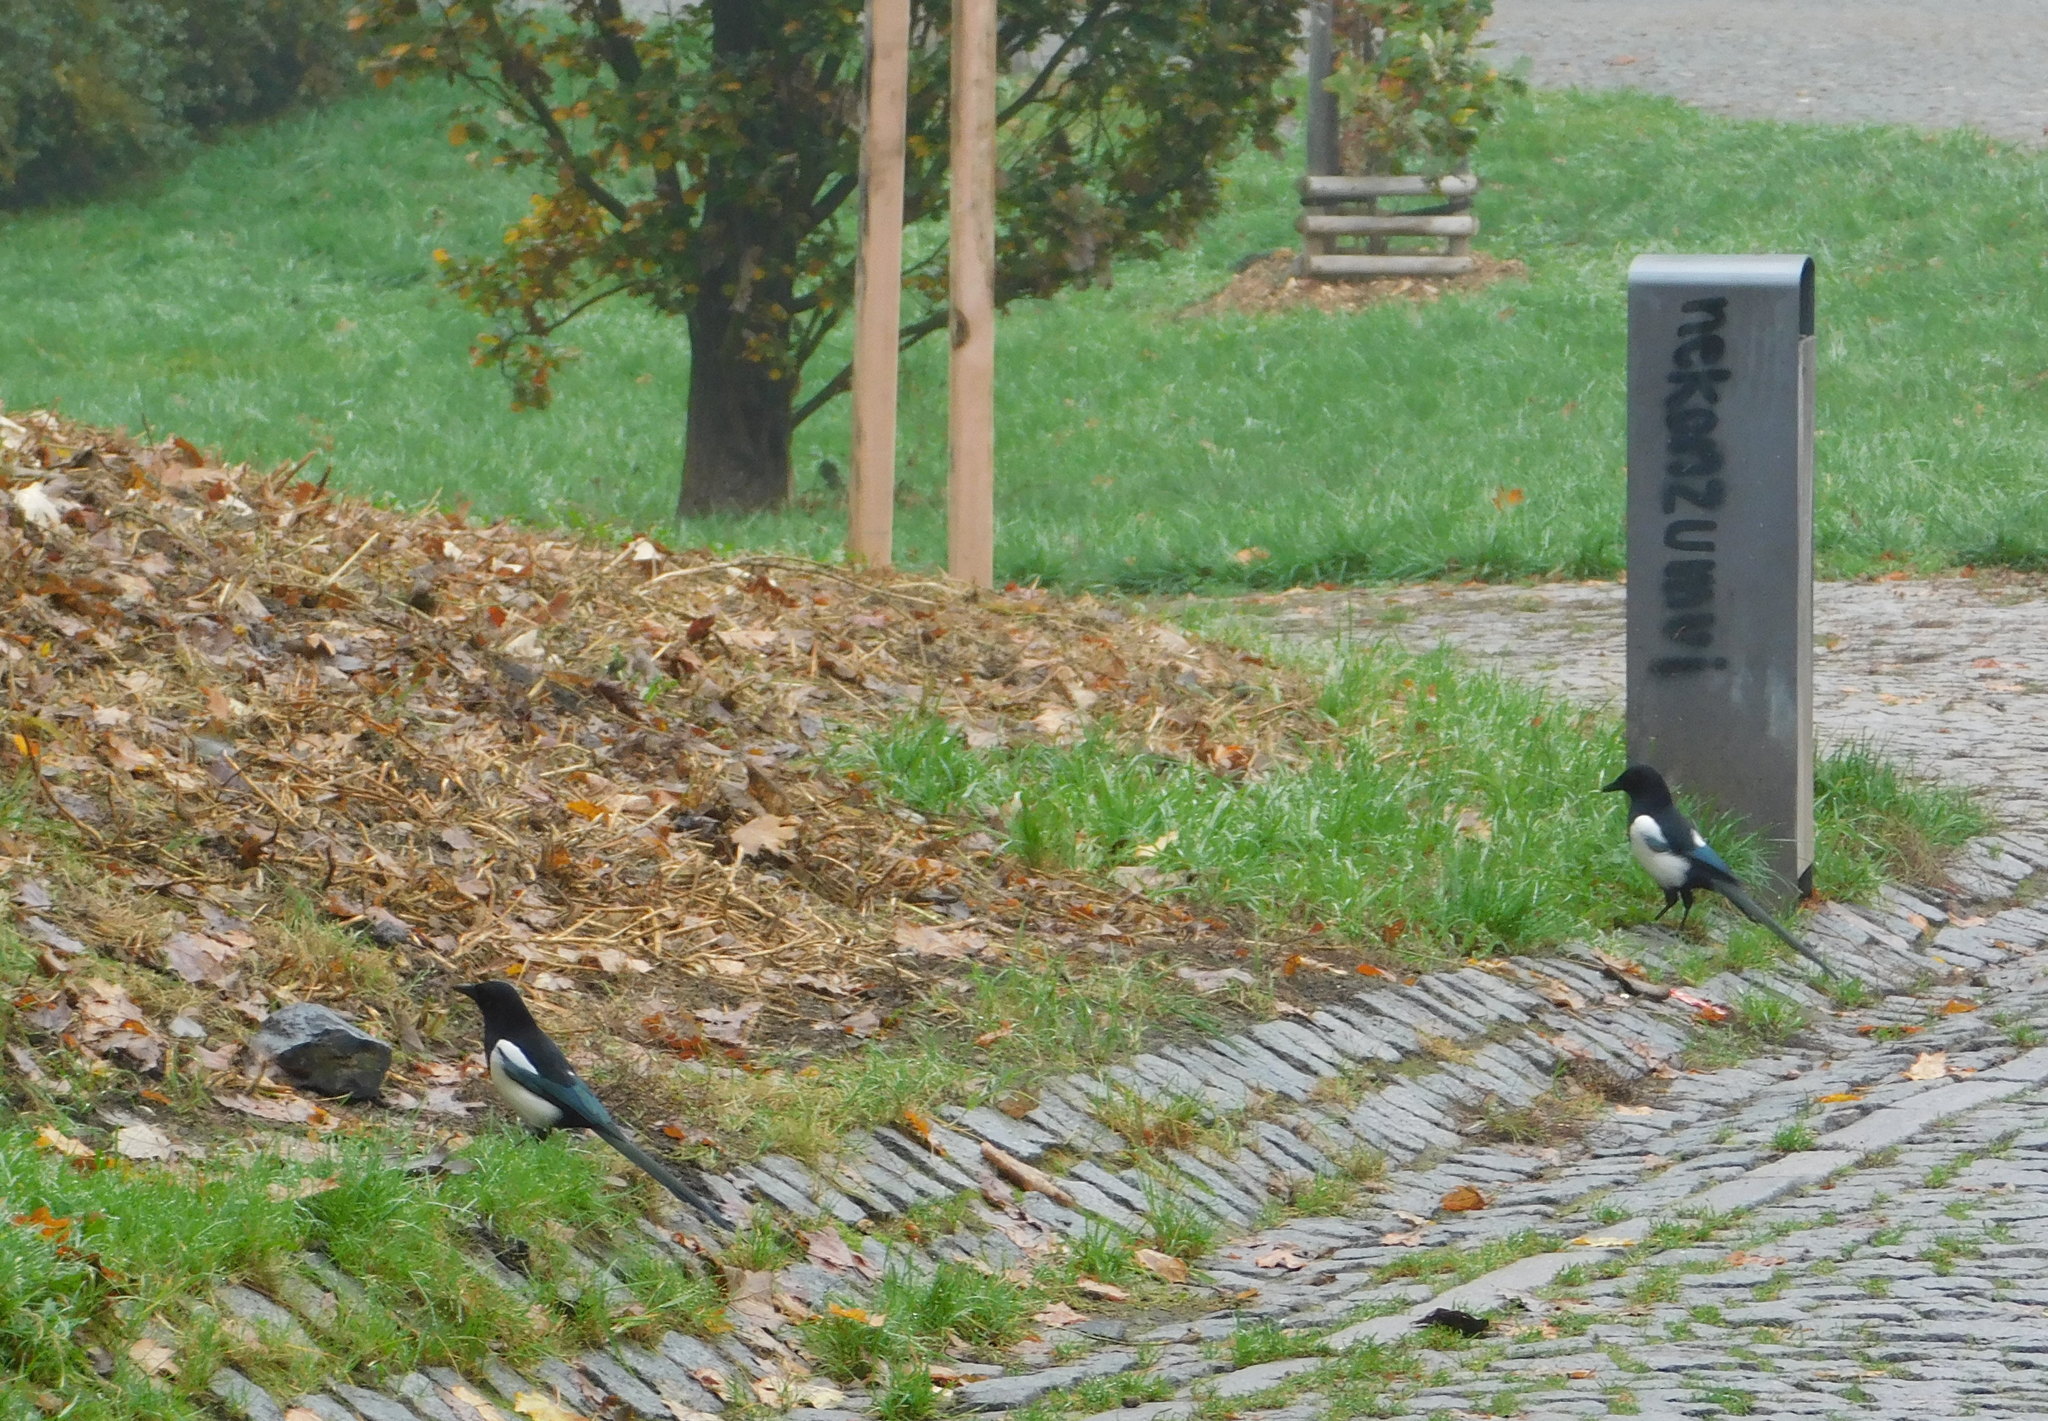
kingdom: Animalia
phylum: Chordata
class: Aves
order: Passeriformes
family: Corvidae
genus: Pica
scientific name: Pica pica
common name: Eurasian magpie
